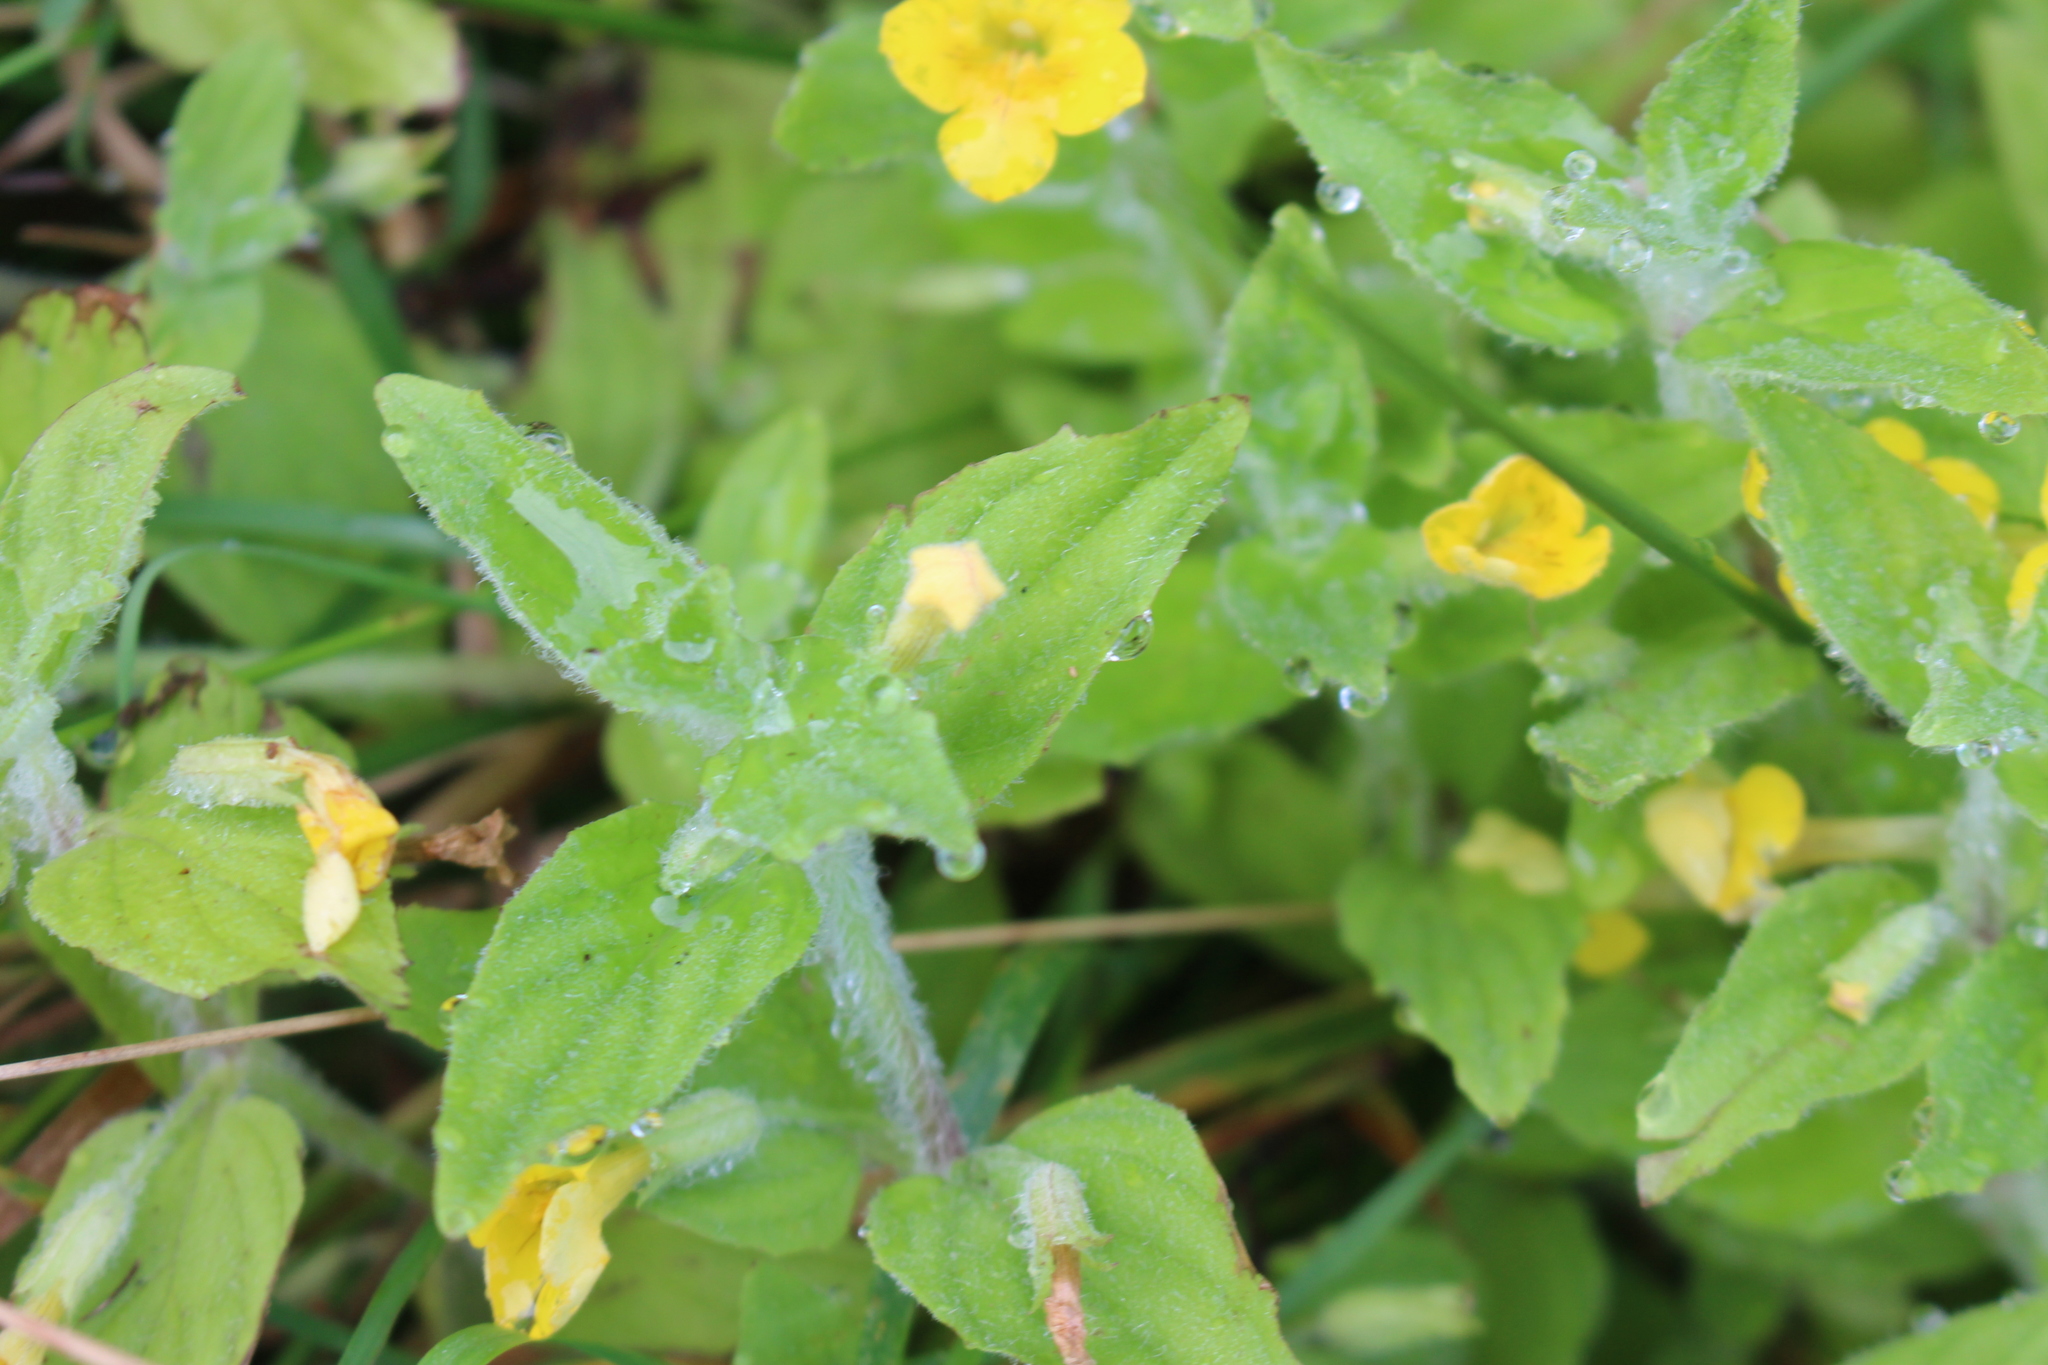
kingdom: Plantae
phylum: Tracheophyta
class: Magnoliopsida
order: Lamiales
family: Phrymaceae
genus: Erythranthe
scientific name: Erythranthe moschata
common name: Muskflower
